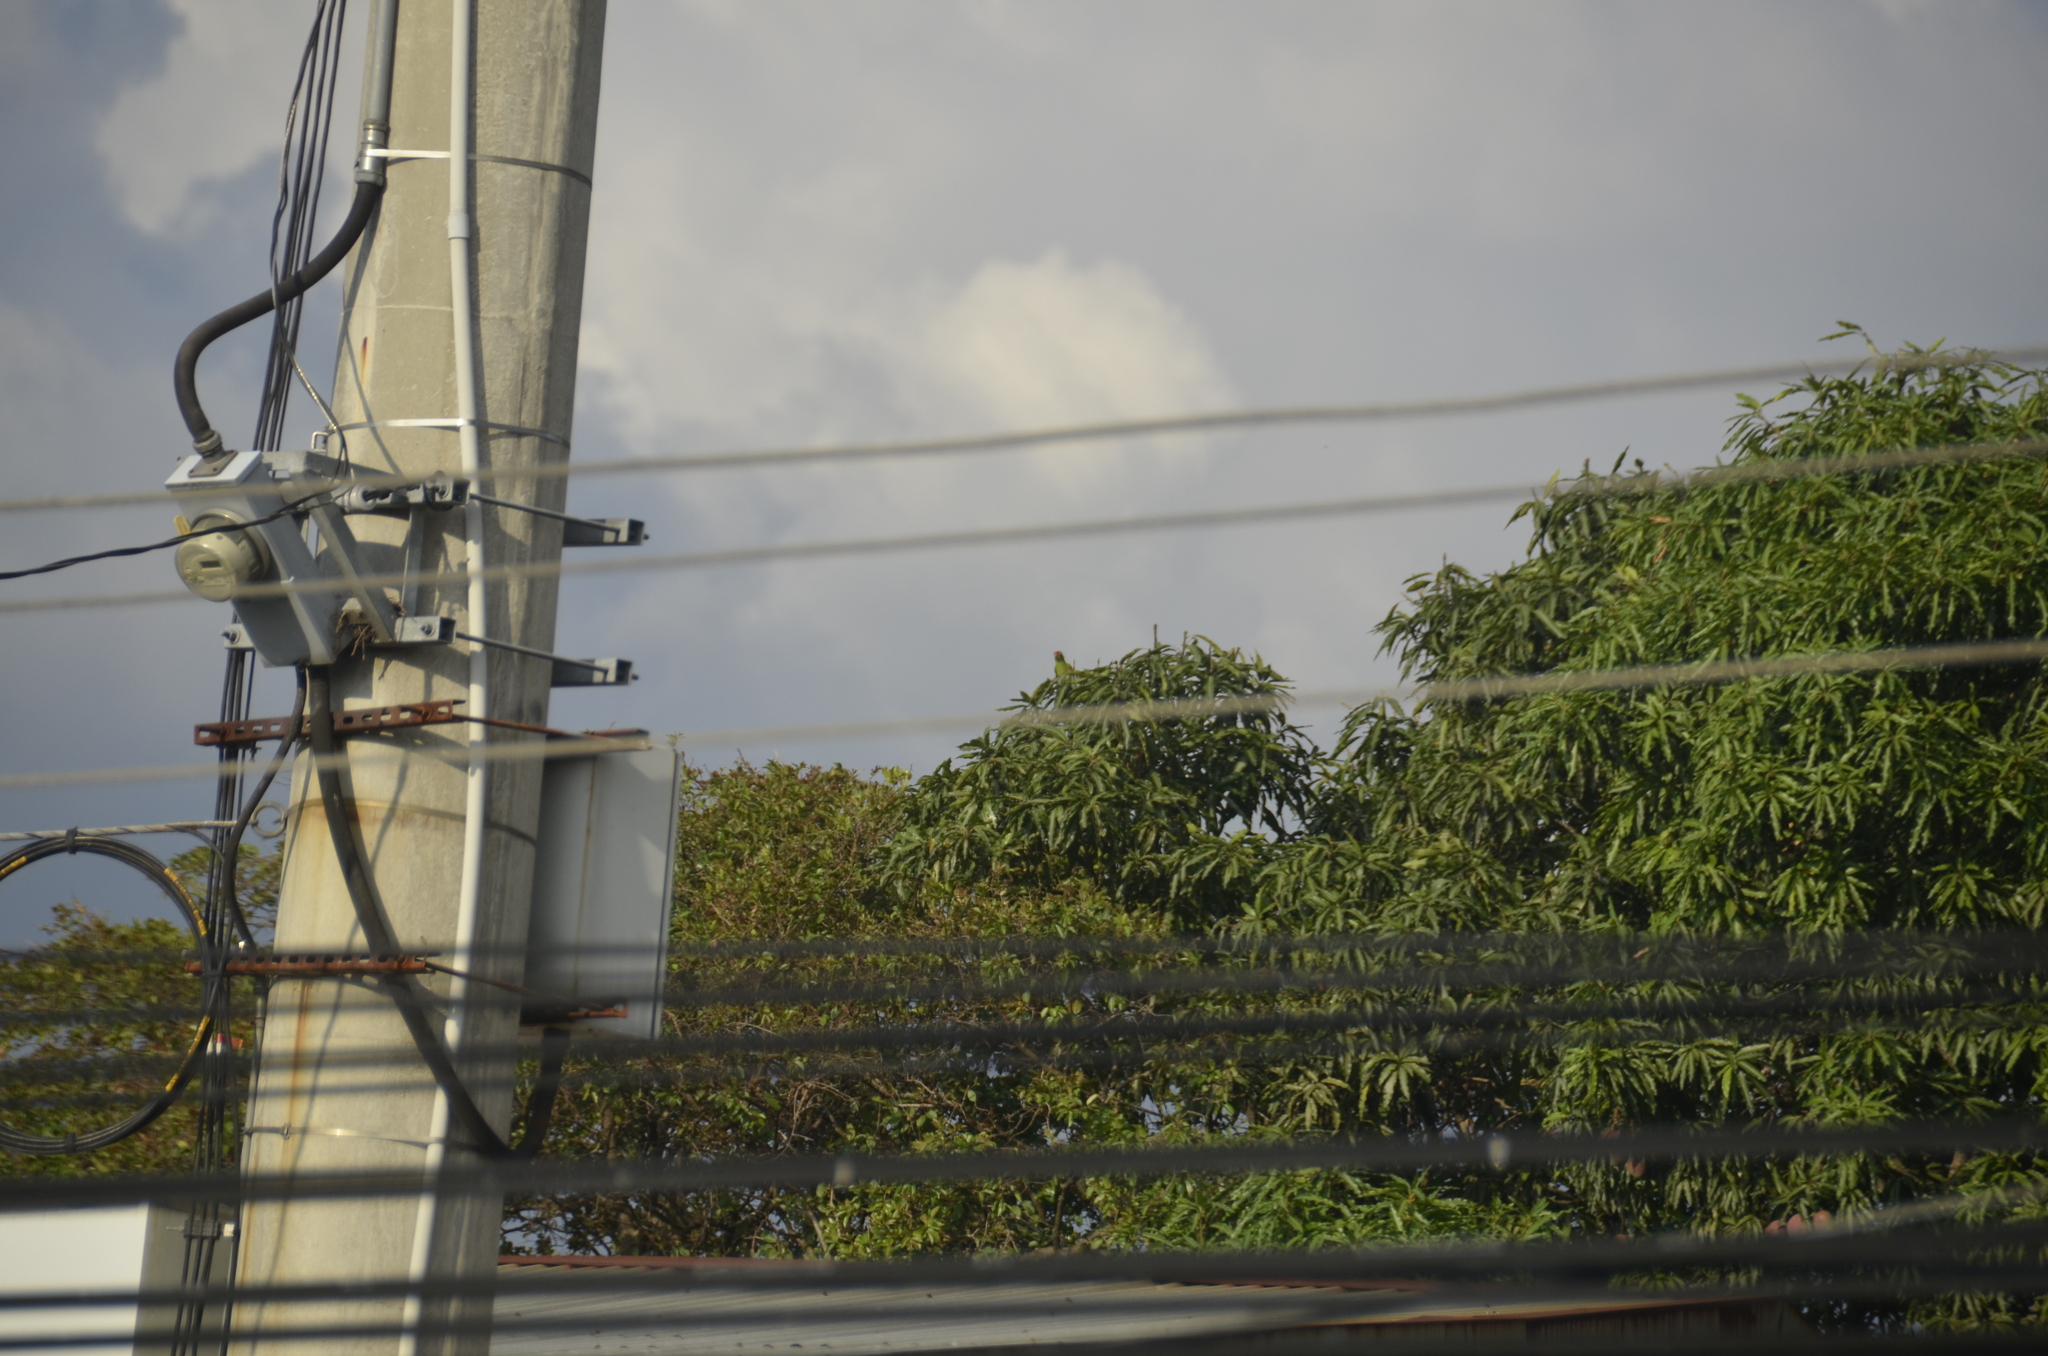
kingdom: Animalia
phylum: Chordata
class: Aves
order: Psittaciformes
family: Psittacidae
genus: Aratinga
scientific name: Aratinga finschi
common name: Crimson-fronted parakeet
